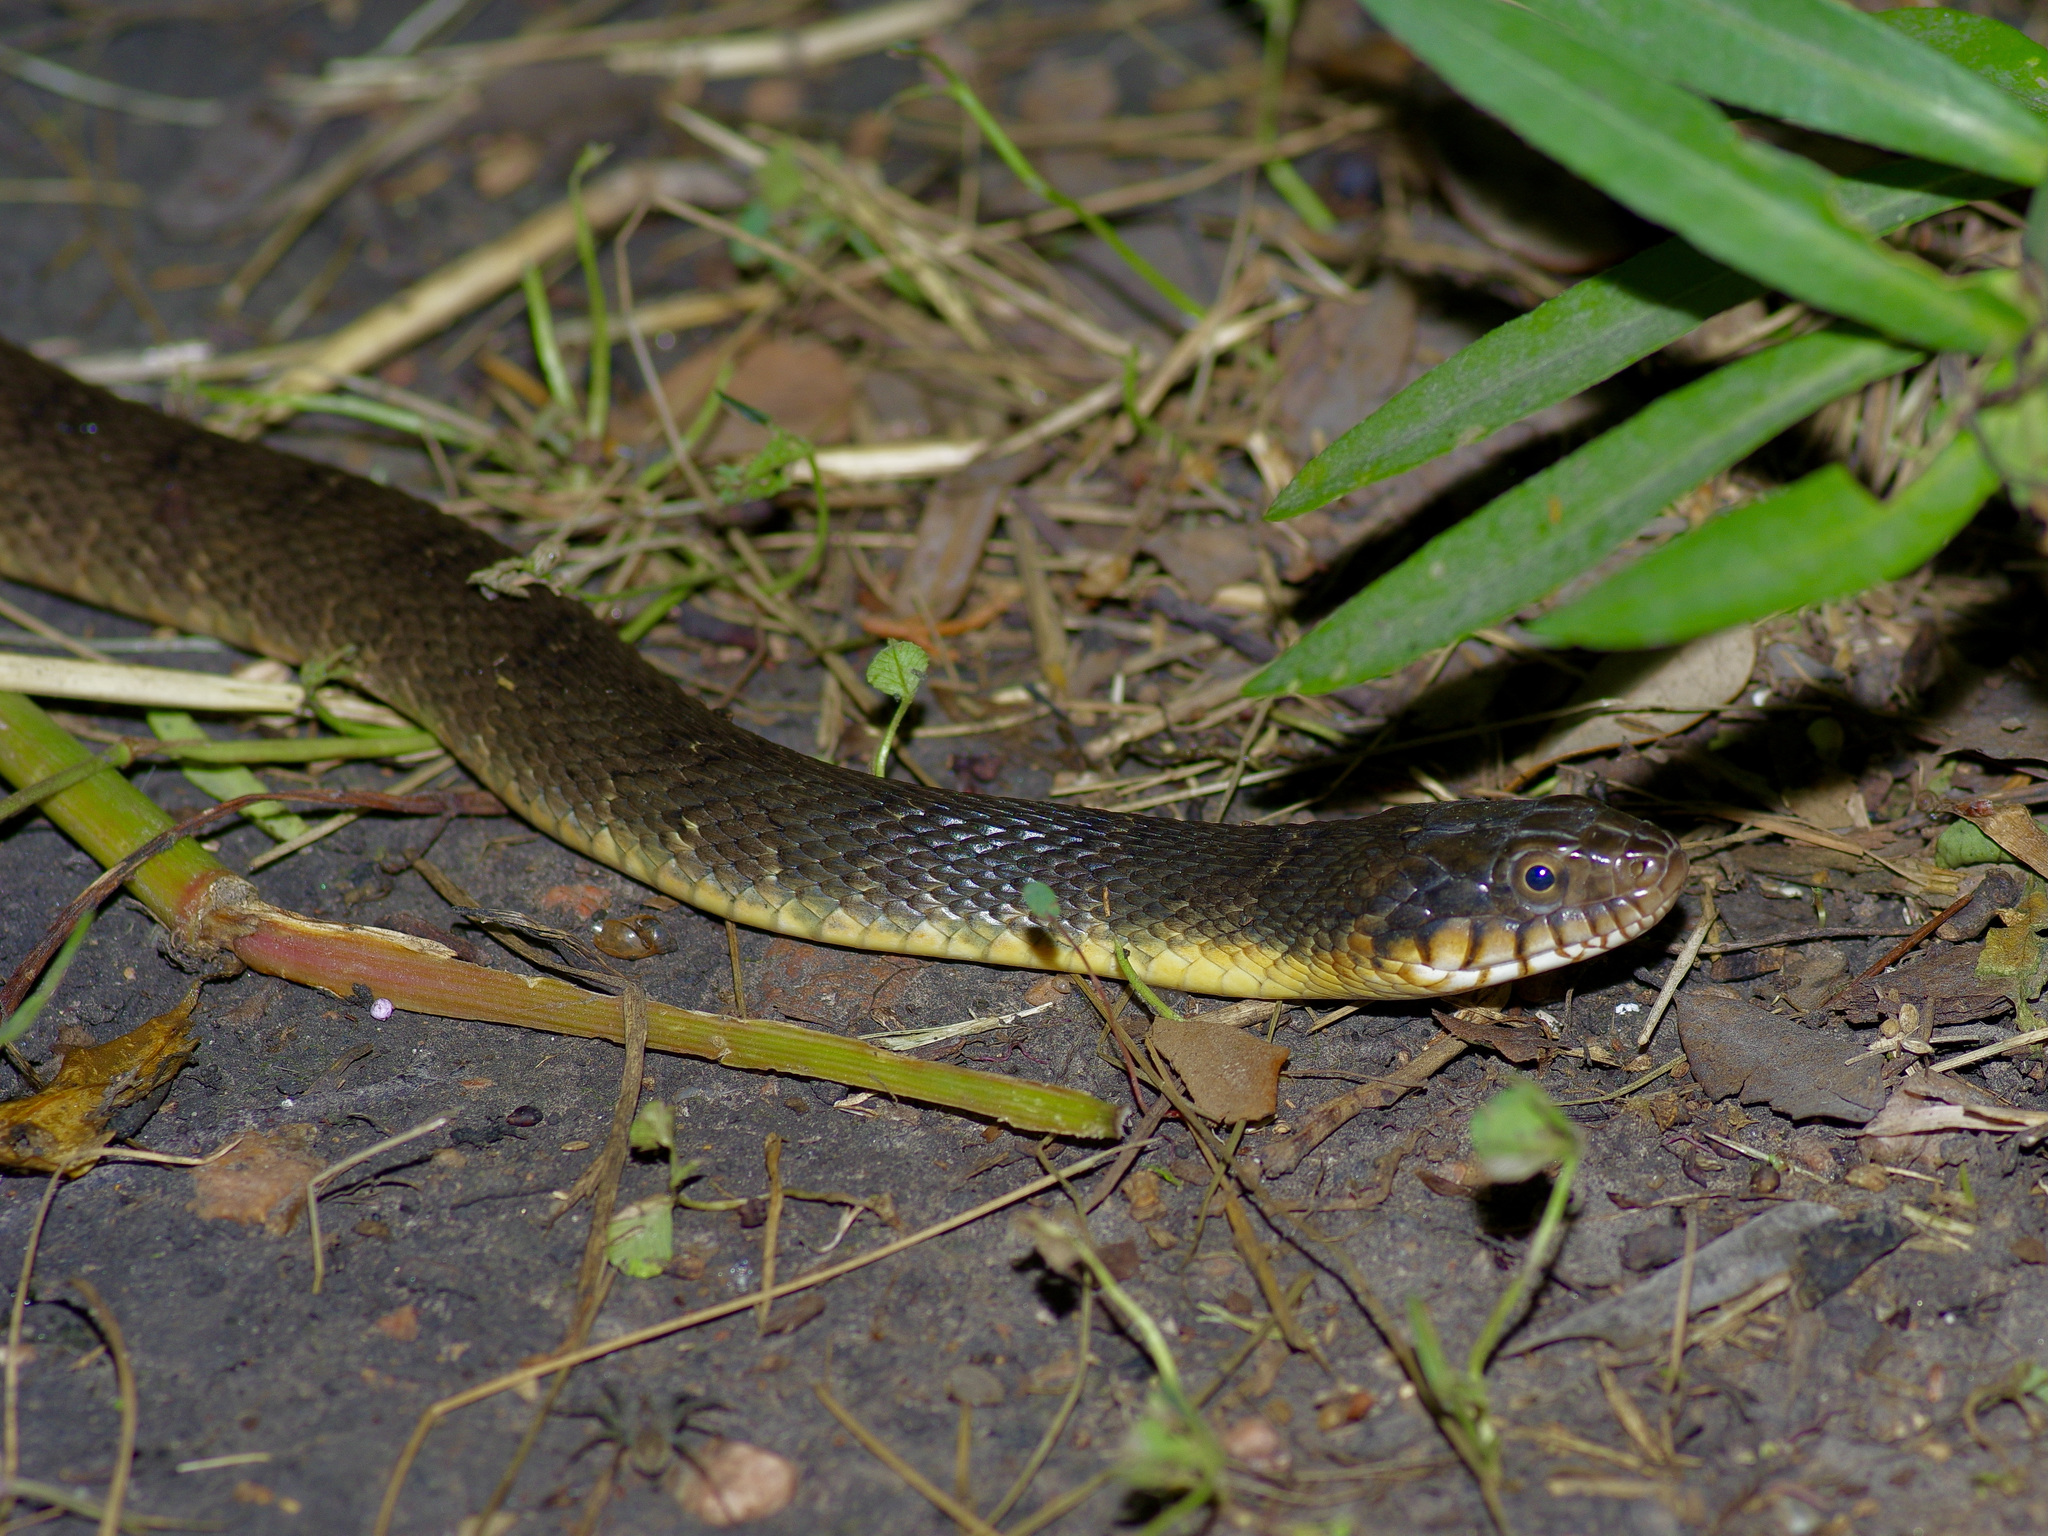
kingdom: Animalia
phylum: Chordata
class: Squamata
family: Colubridae
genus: Nerodia
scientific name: Nerodia erythrogaster
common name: Plainbelly water snake
